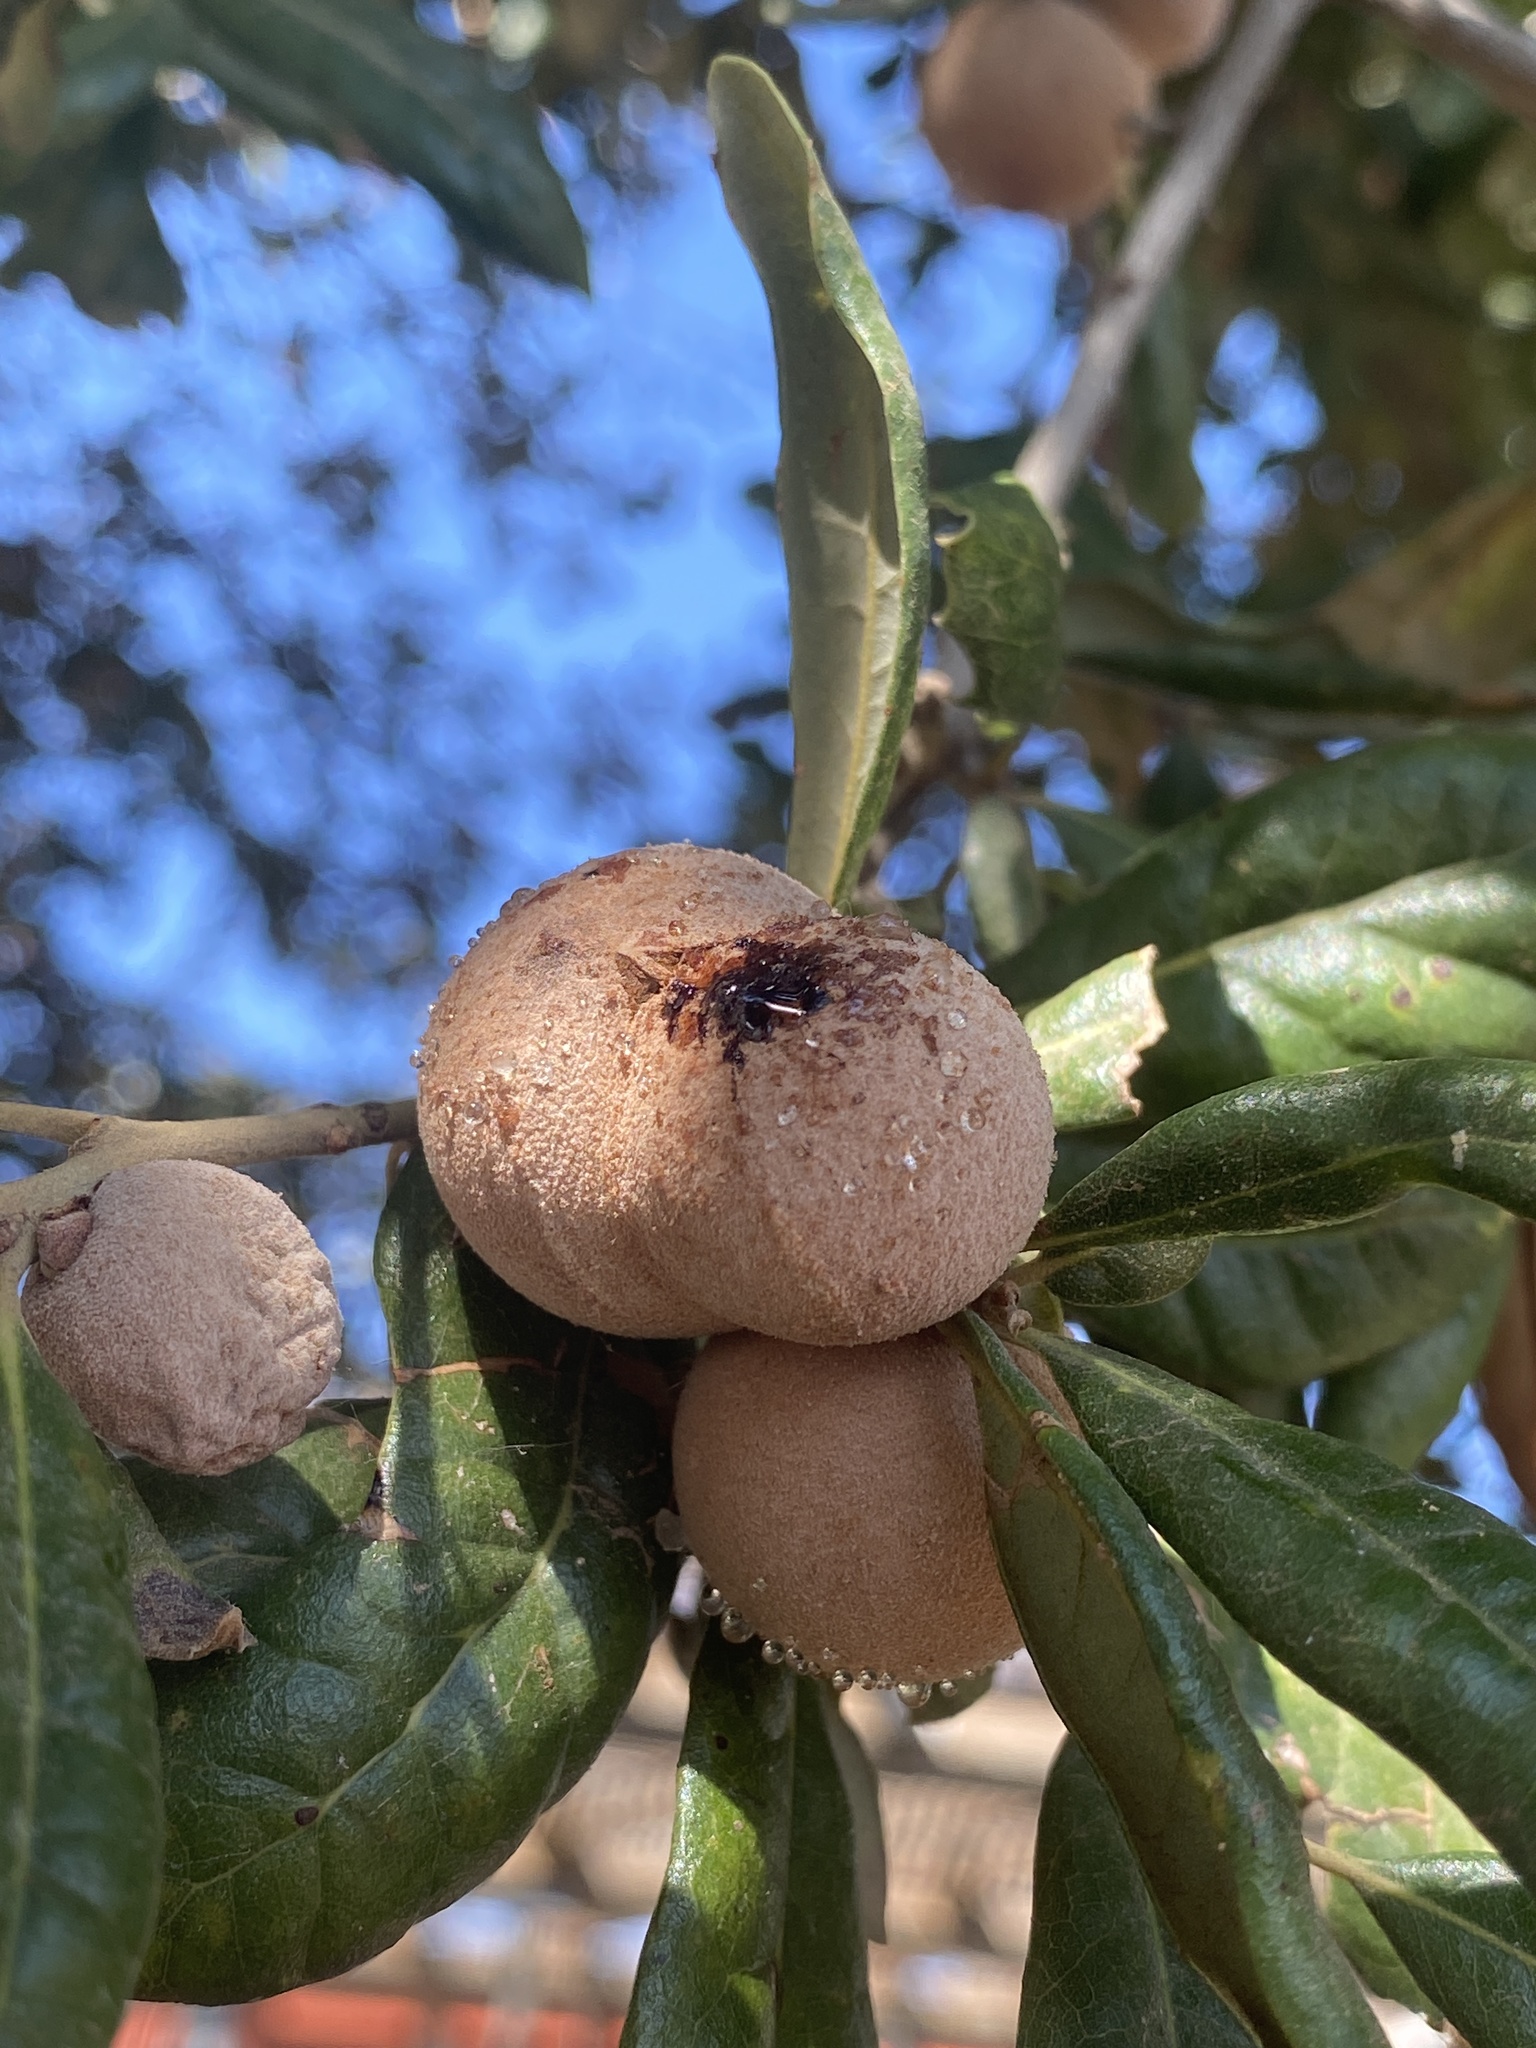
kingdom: Animalia
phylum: Arthropoda
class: Insecta
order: Hymenoptera
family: Cynipidae
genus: Disholcaspis
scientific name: Disholcaspis
